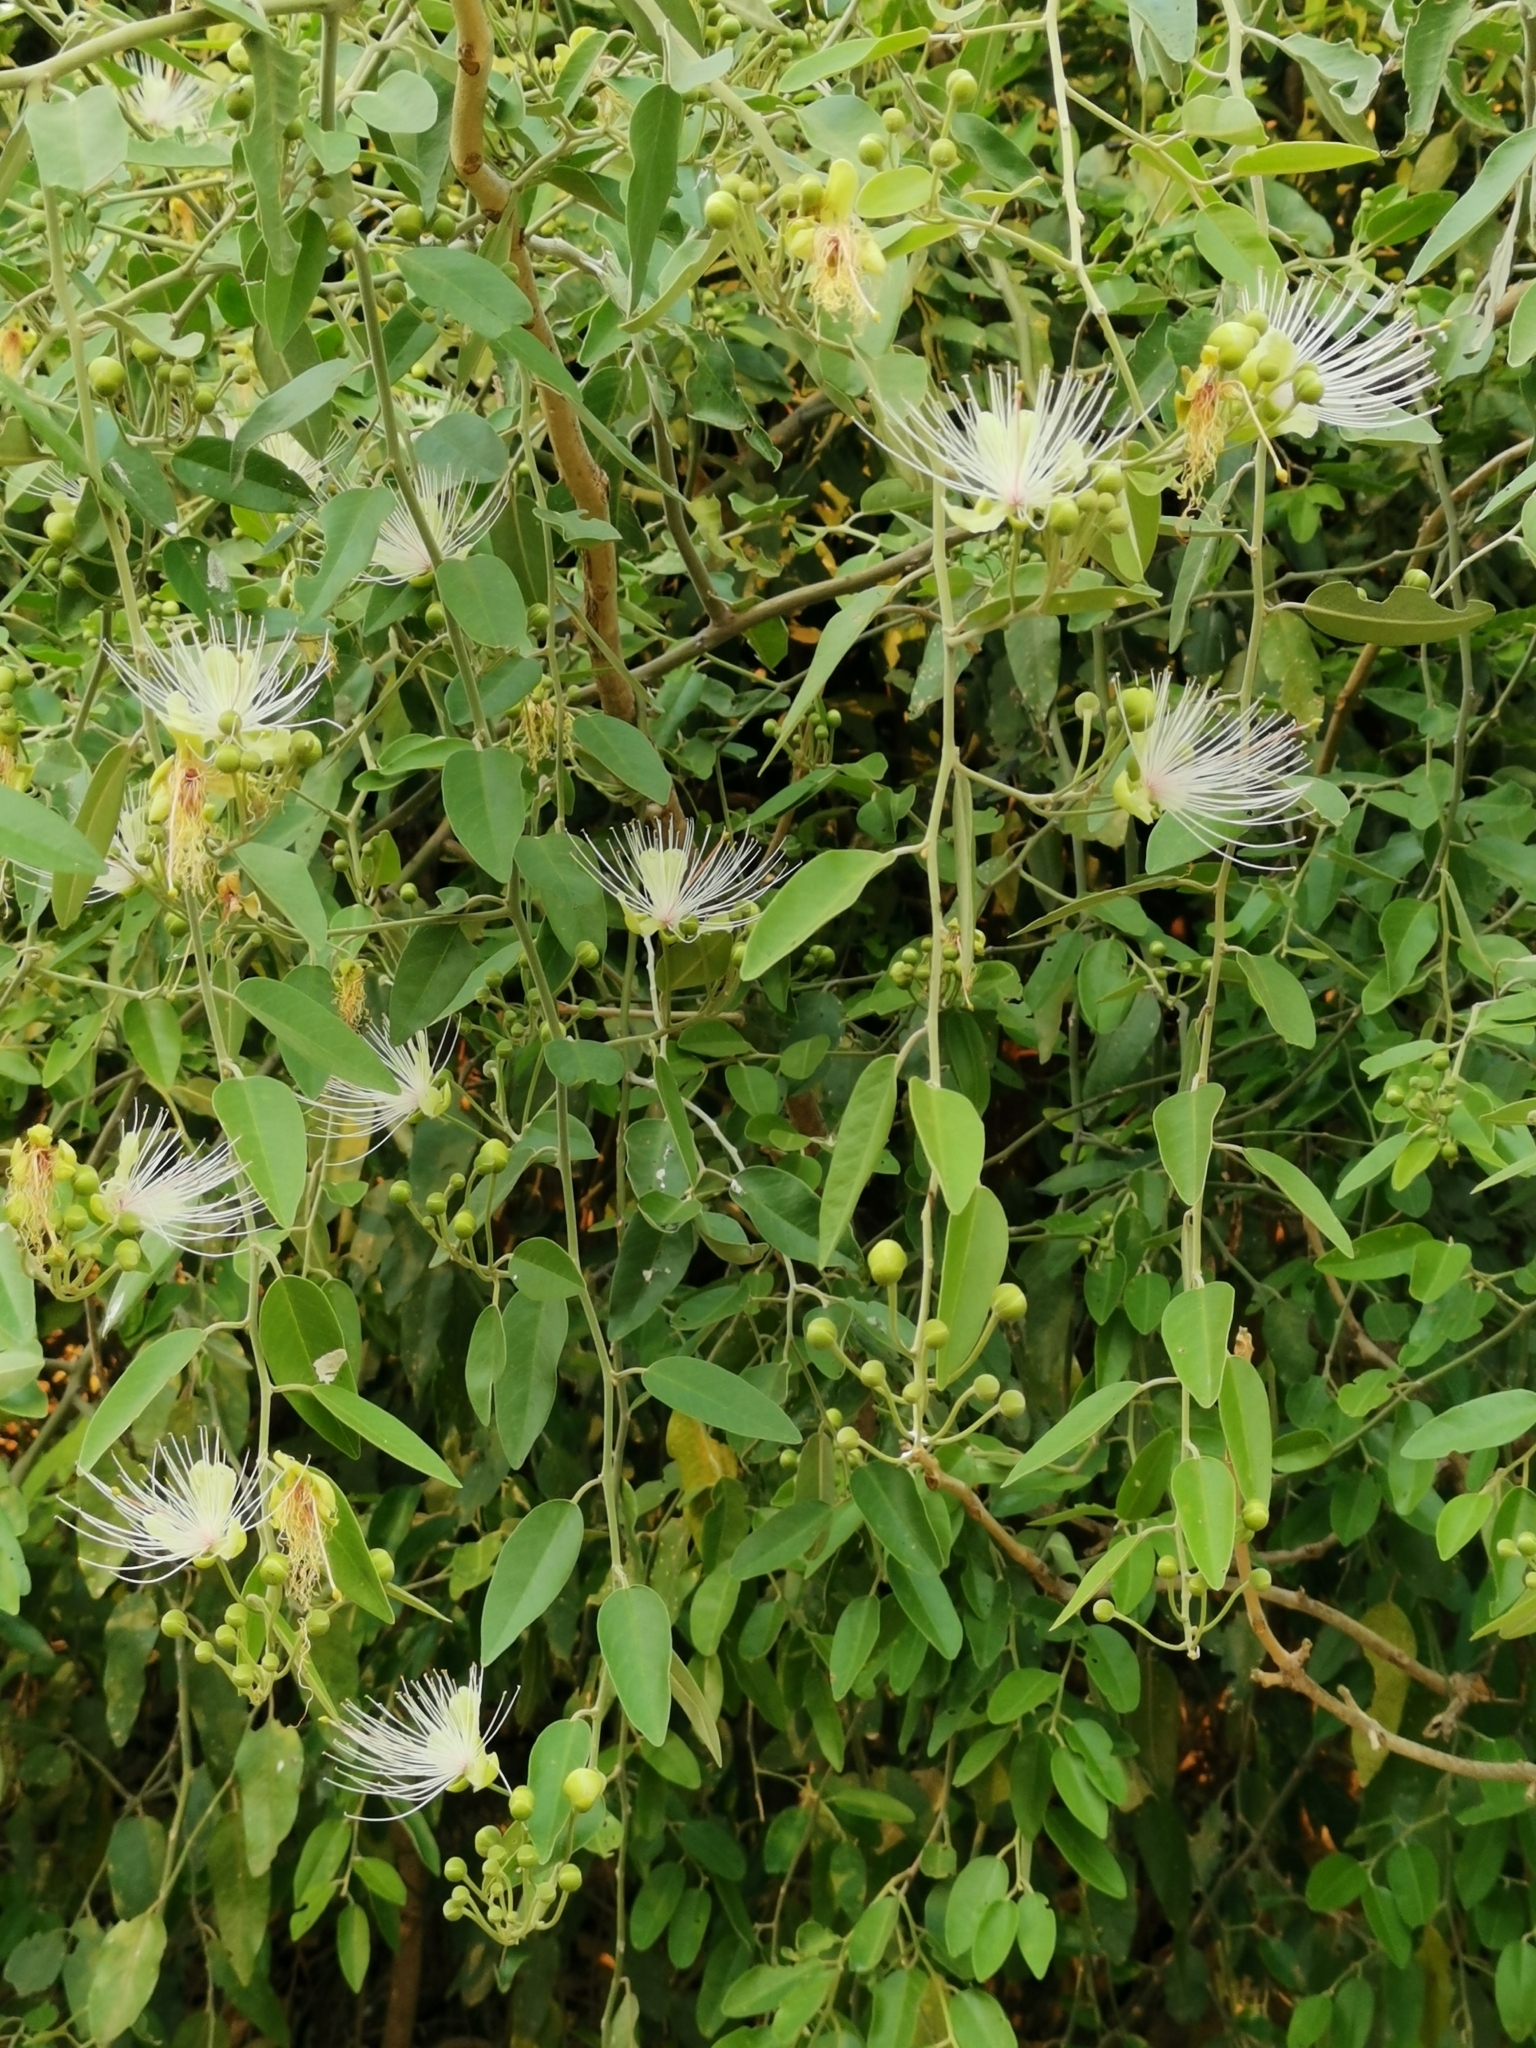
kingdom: Plantae
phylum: Tracheophyta
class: Magnoliopsida
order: Brassicales
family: Capparaceae
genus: Capparis
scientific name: Capparis tomentosa
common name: African caper
